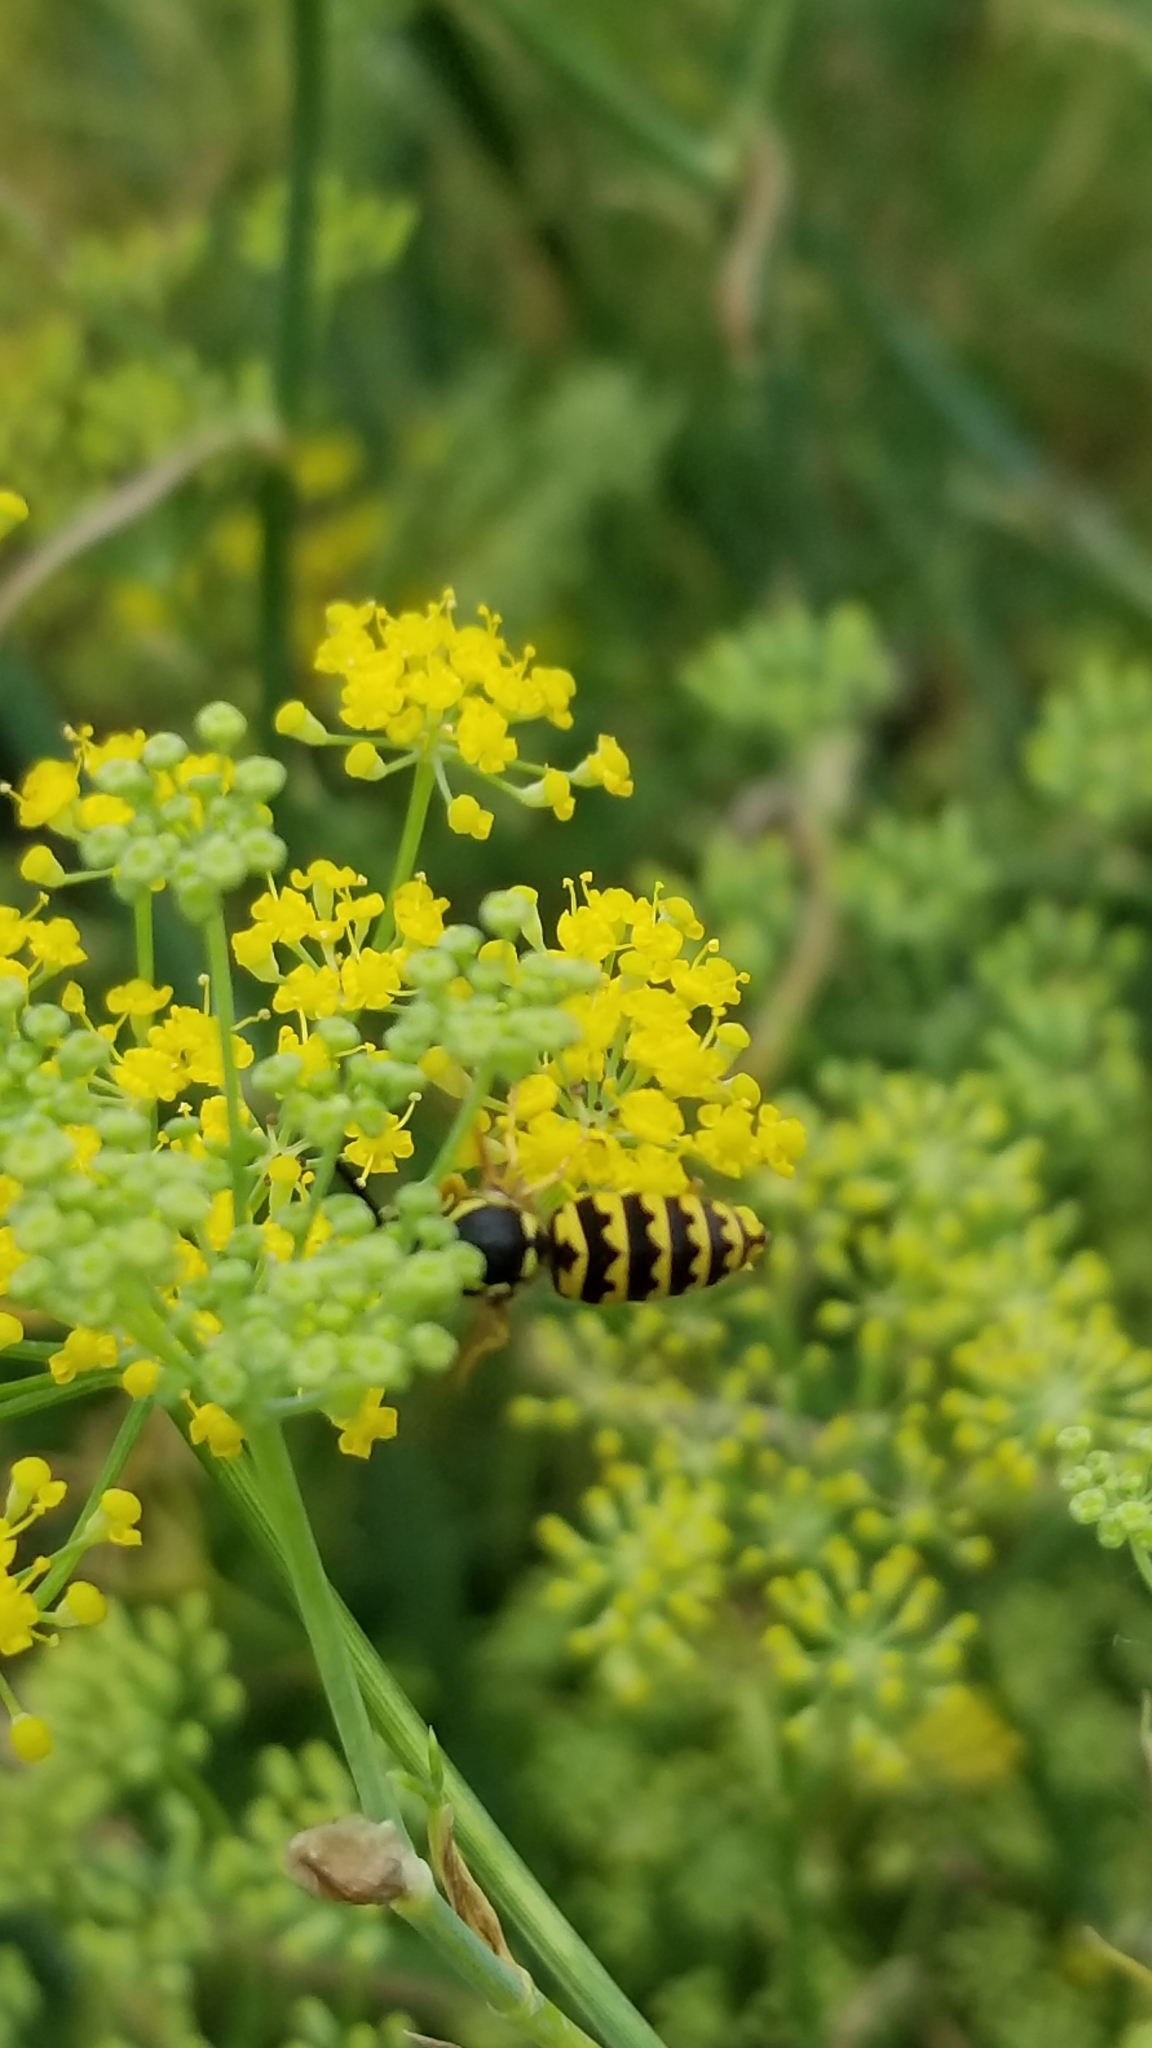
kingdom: Animalia
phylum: Arthropoda
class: Insecta
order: Hymenoptera
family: Vespidae
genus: Vespula
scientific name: Vespula pensylvanica
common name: Western yellowjacket
